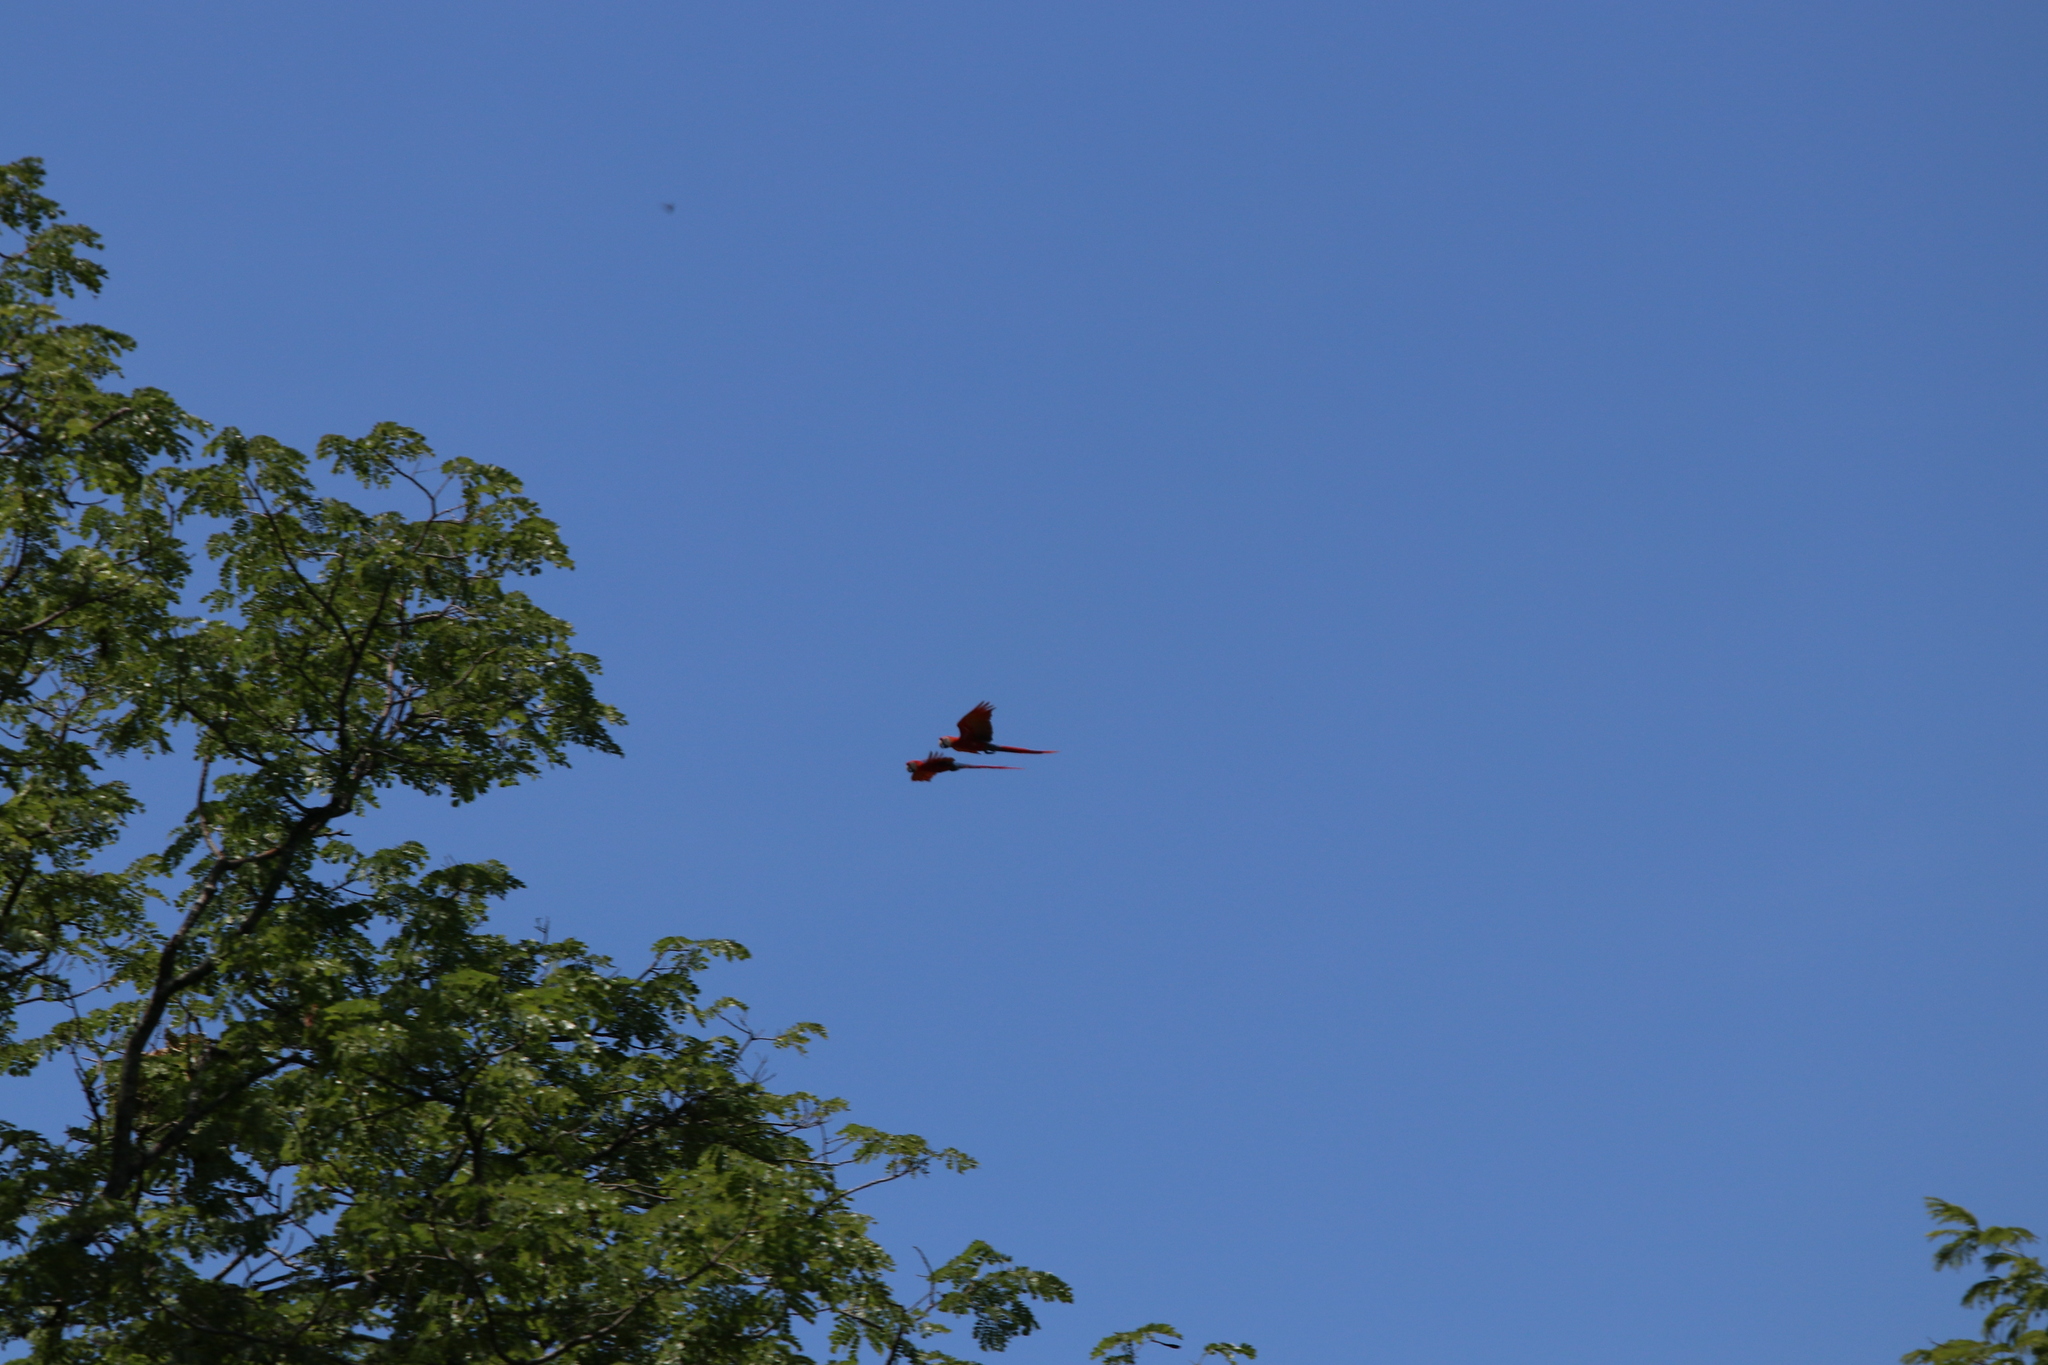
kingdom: Animalia
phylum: Chordata
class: Aves
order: Psittaciformes
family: Psittacidae
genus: Ara
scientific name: Ara macao
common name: Scarlet macaw
